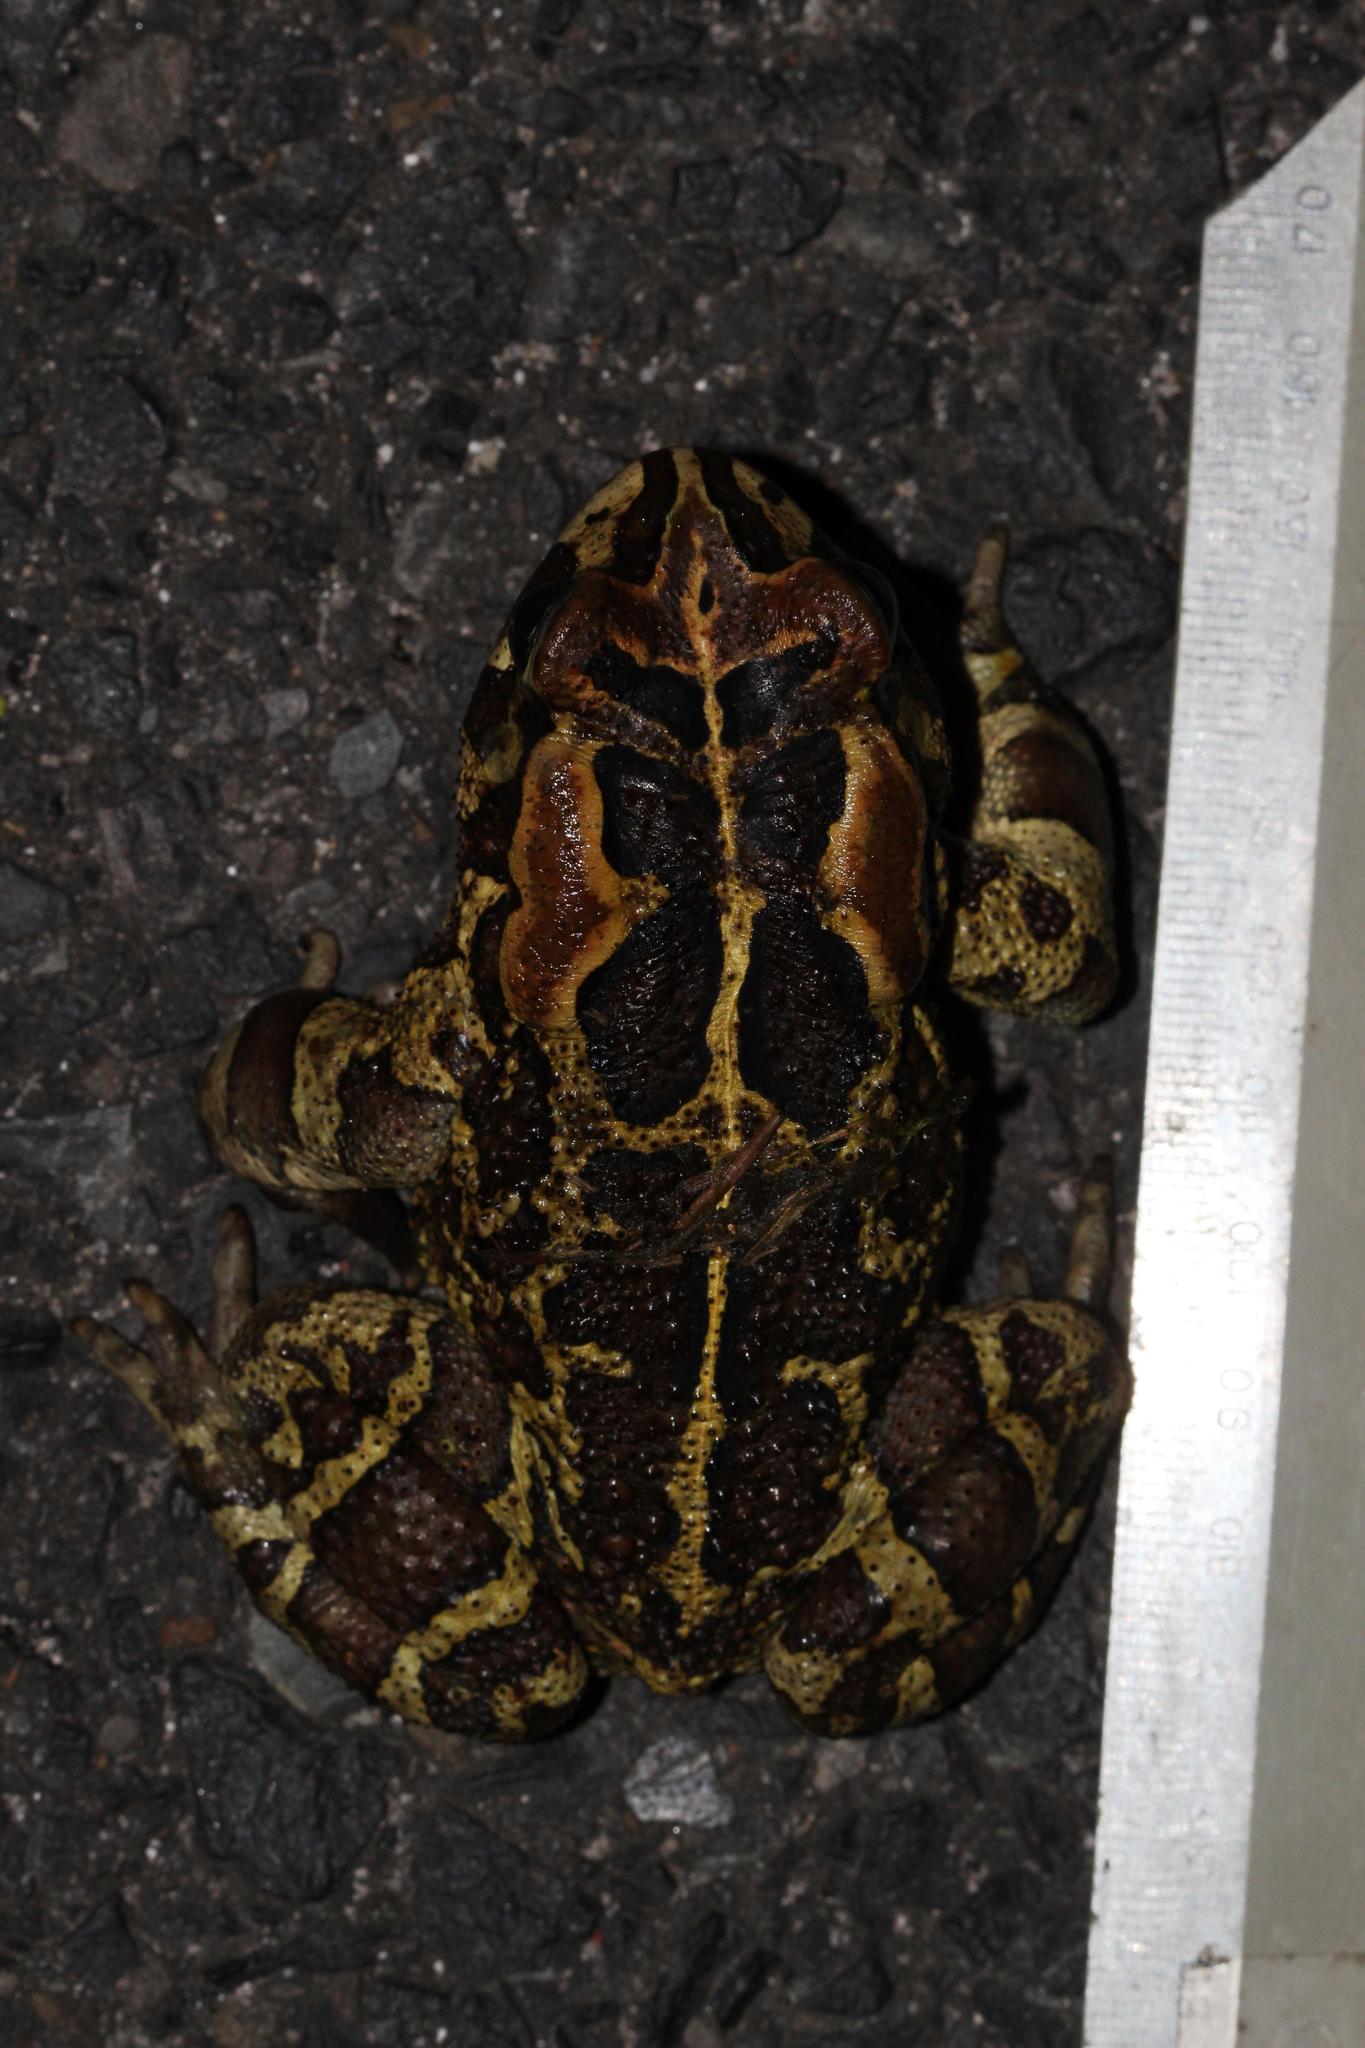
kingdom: Animalia
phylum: Chordata
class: Amphibia
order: Anura
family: Bufonidae
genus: Sclerophrys
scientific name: Sclerophrys pantherina
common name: Panther toad
